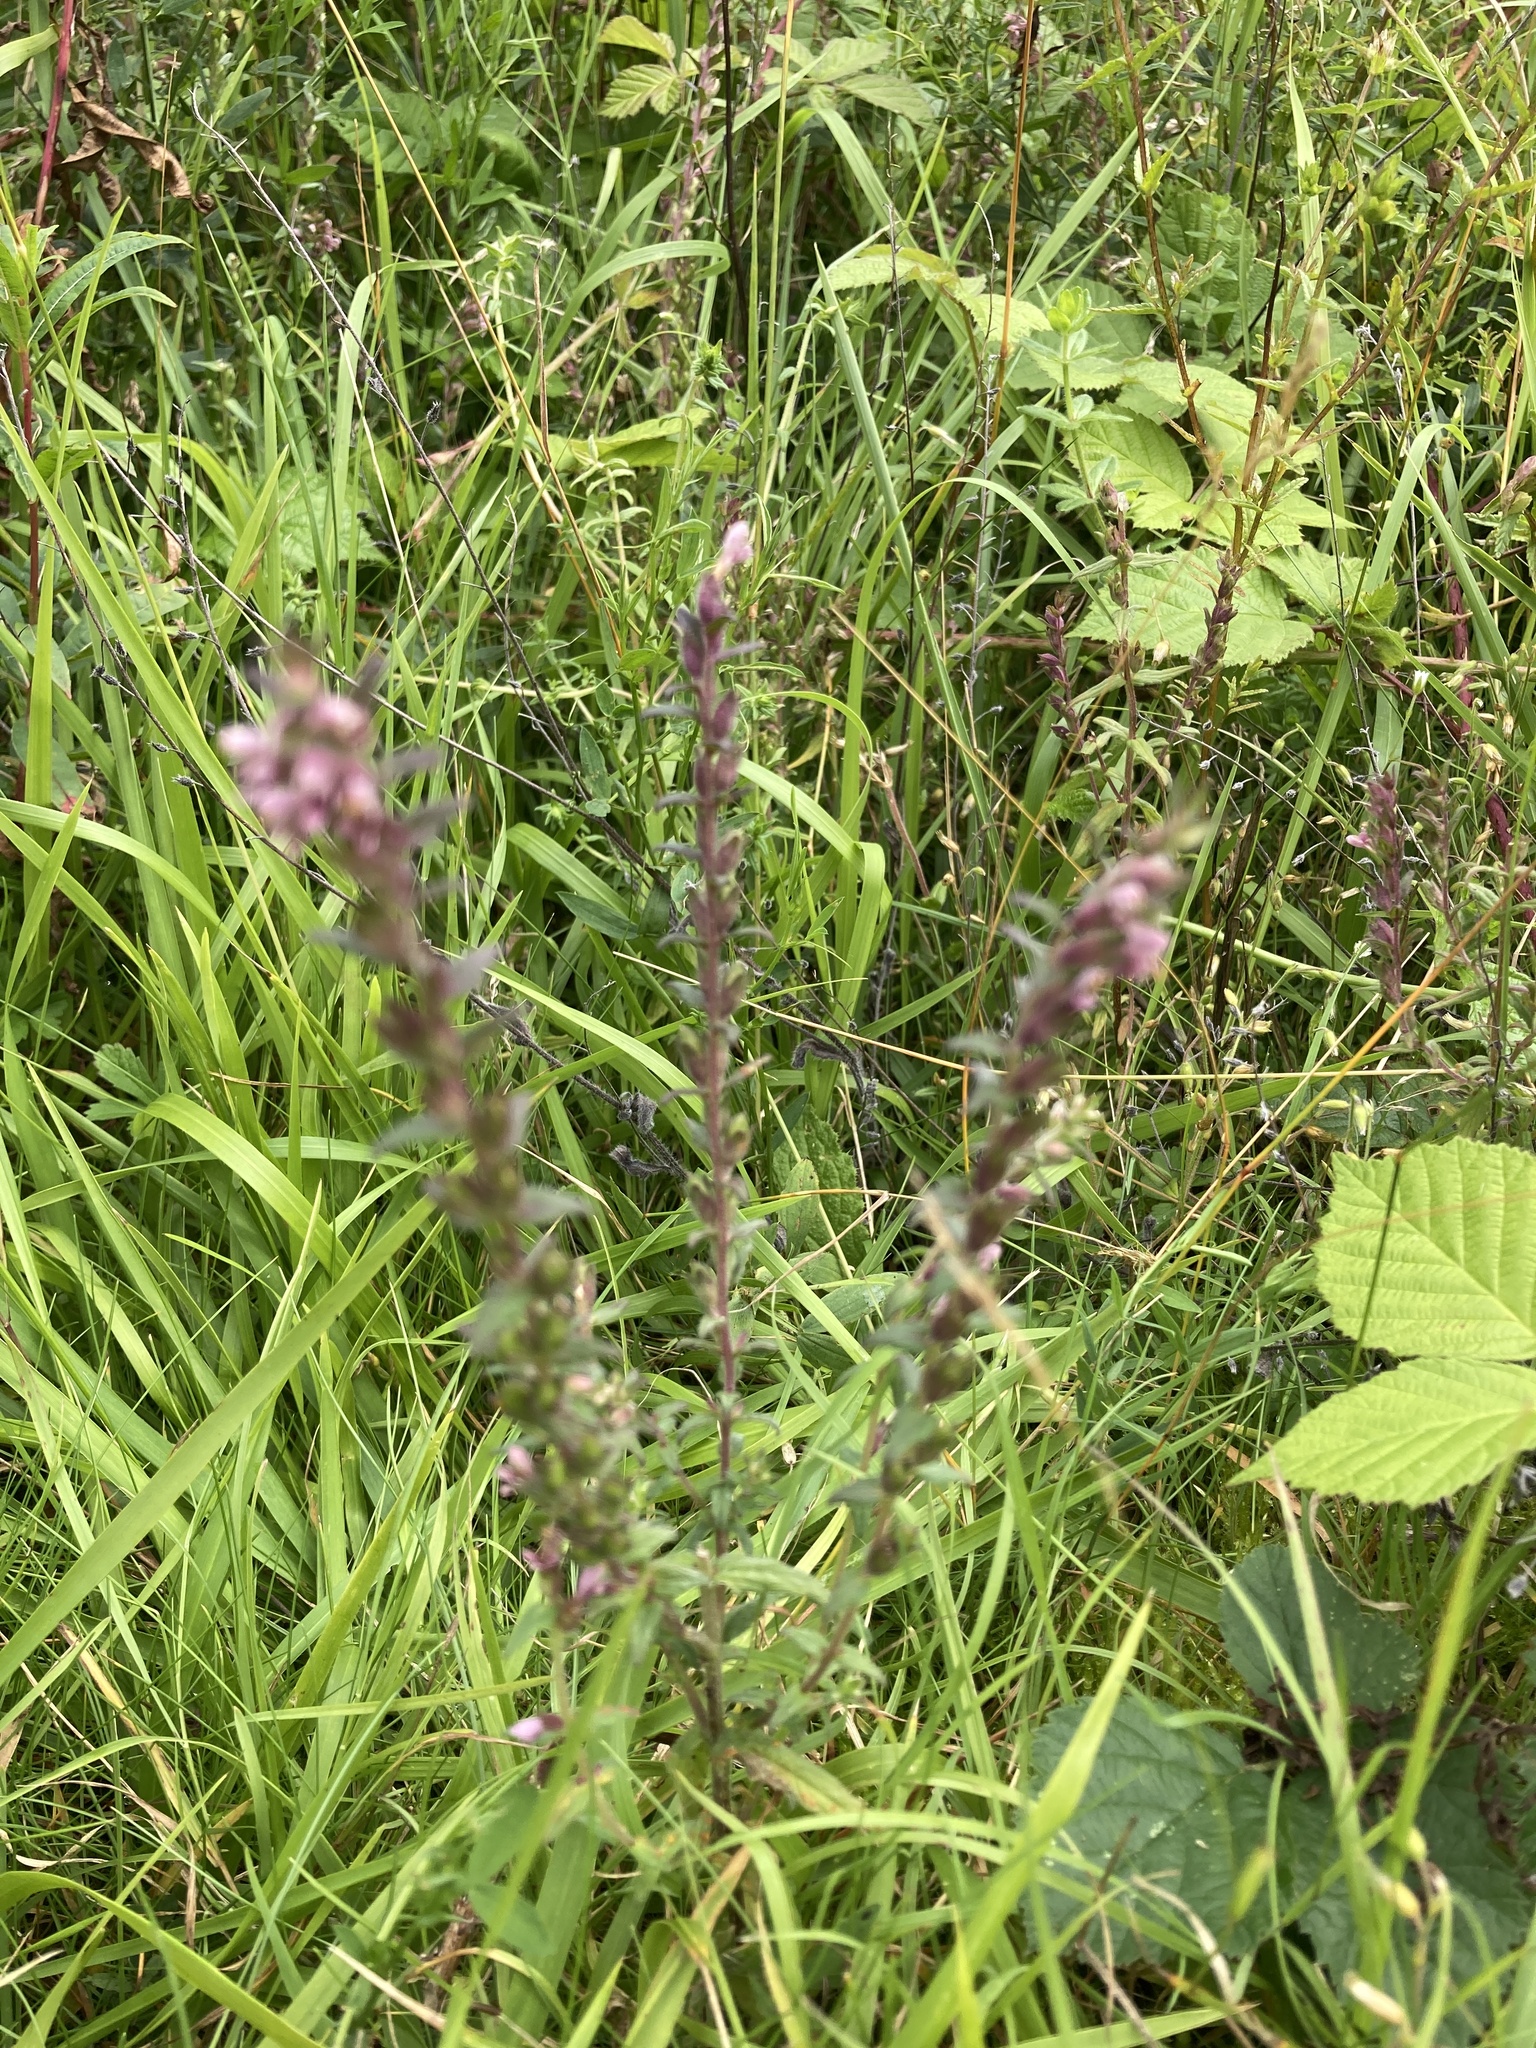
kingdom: Plantae
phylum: Tracheophyta
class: Magnoliopsida
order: Lamiales
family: Orobanchaceae
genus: Odontites
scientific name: Odontites vulgaris
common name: Broomrape
